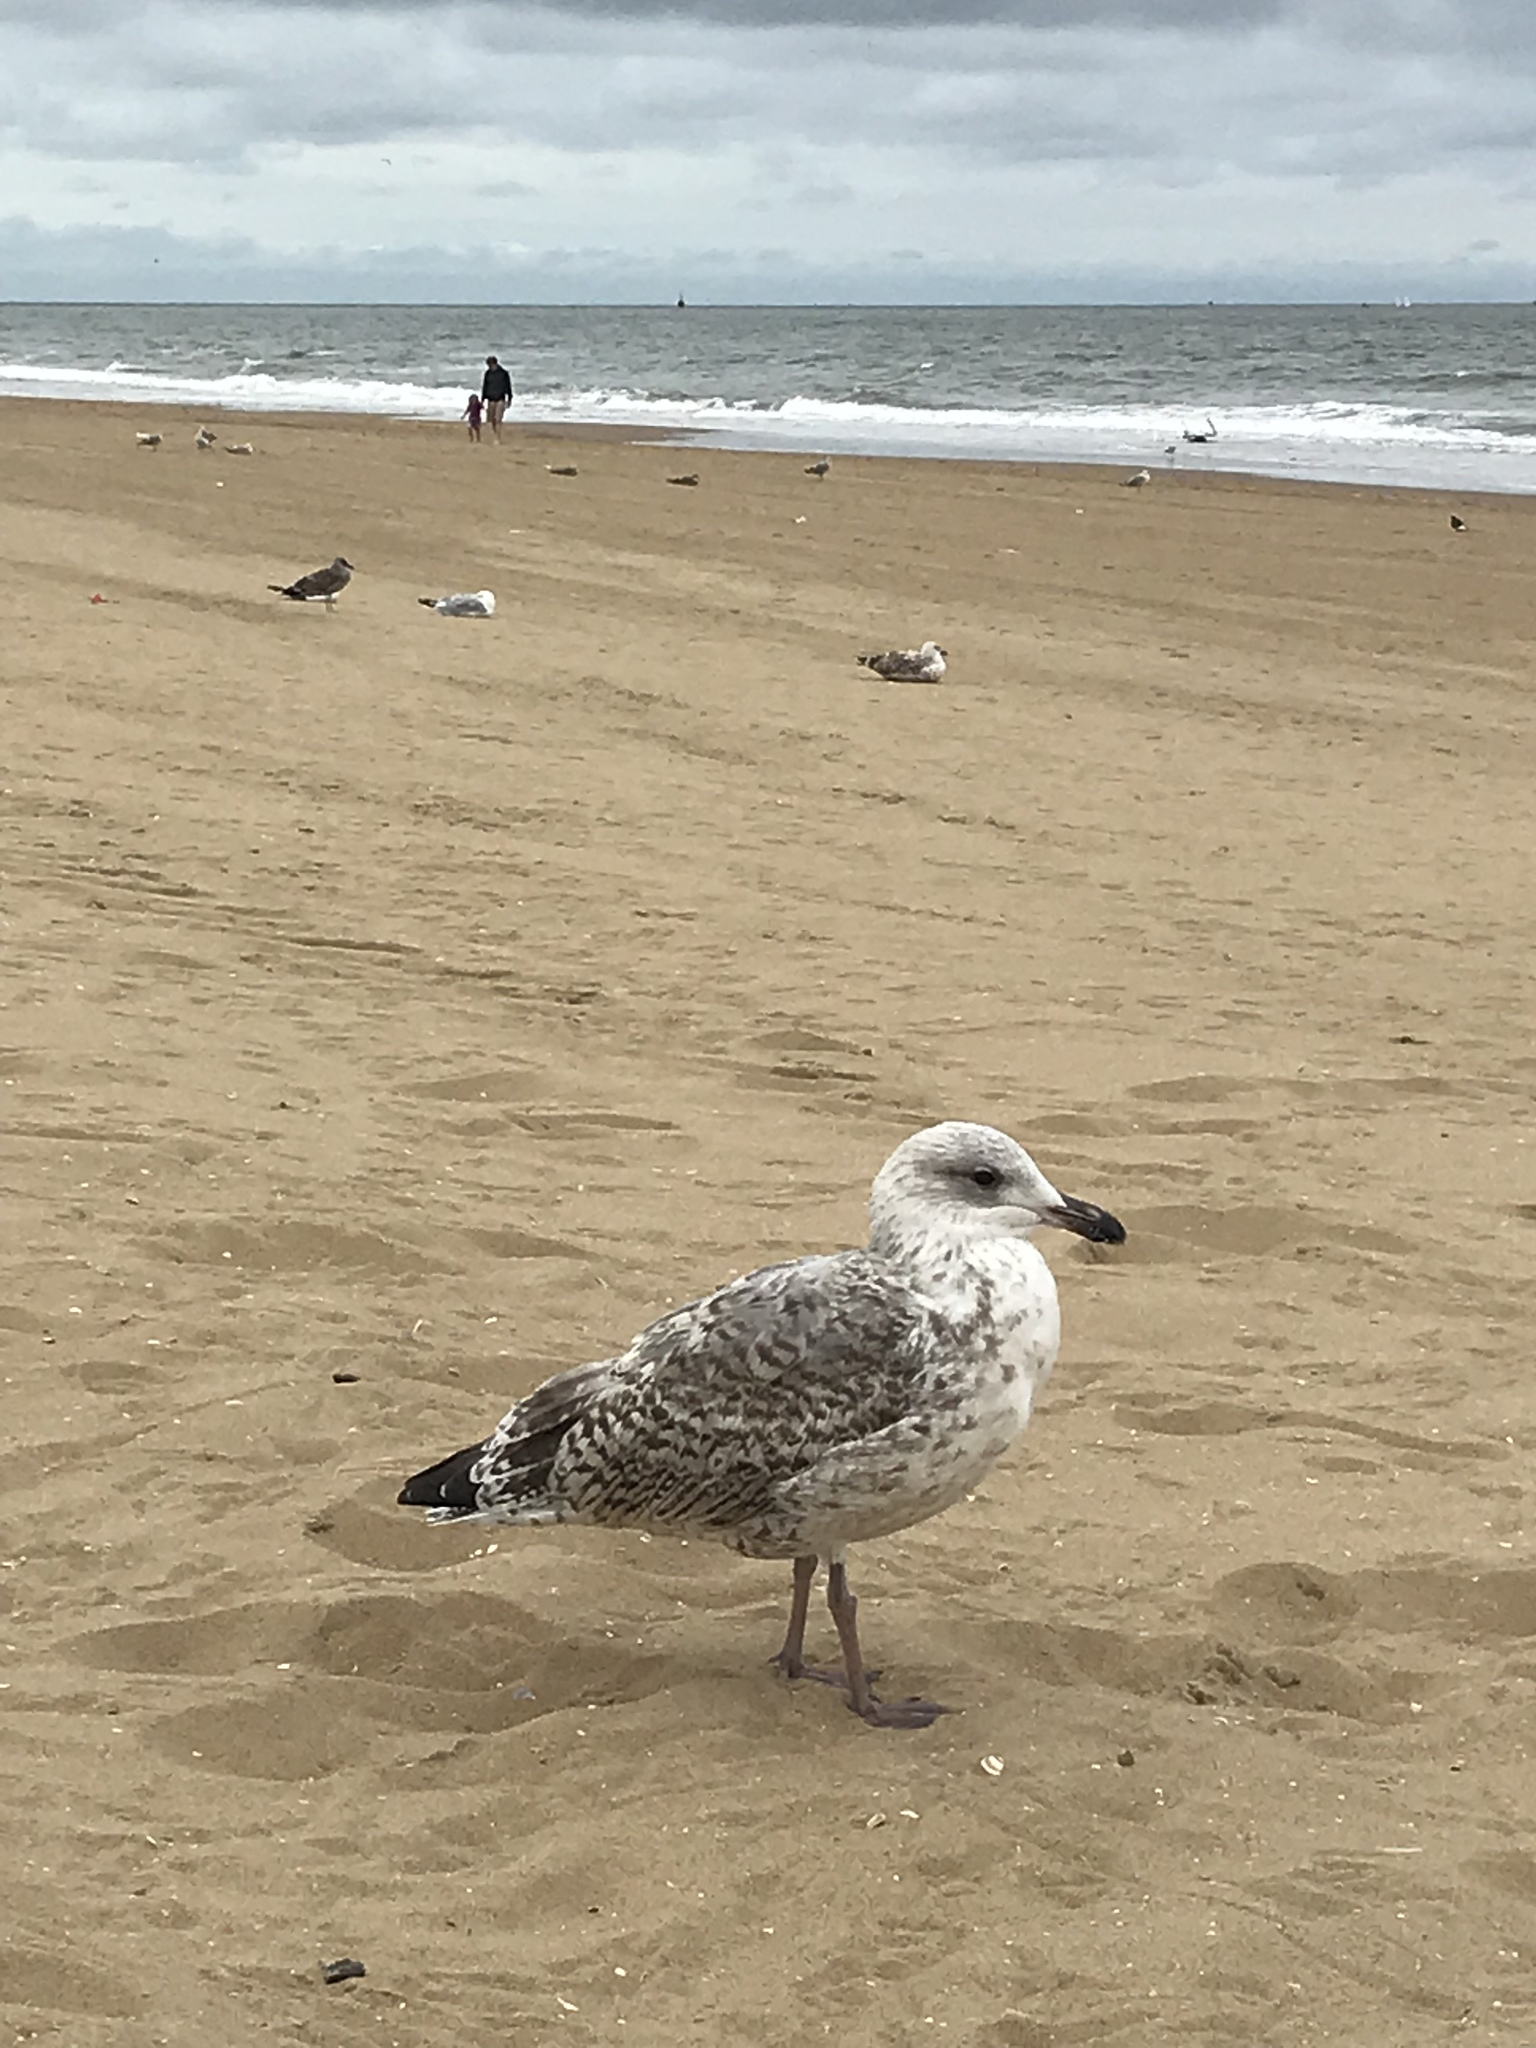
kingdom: Animalia
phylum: Chordata
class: Aves
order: Charadriiformes
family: Laridae
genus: Larus
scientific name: Larus argentatus
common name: Herring gull
